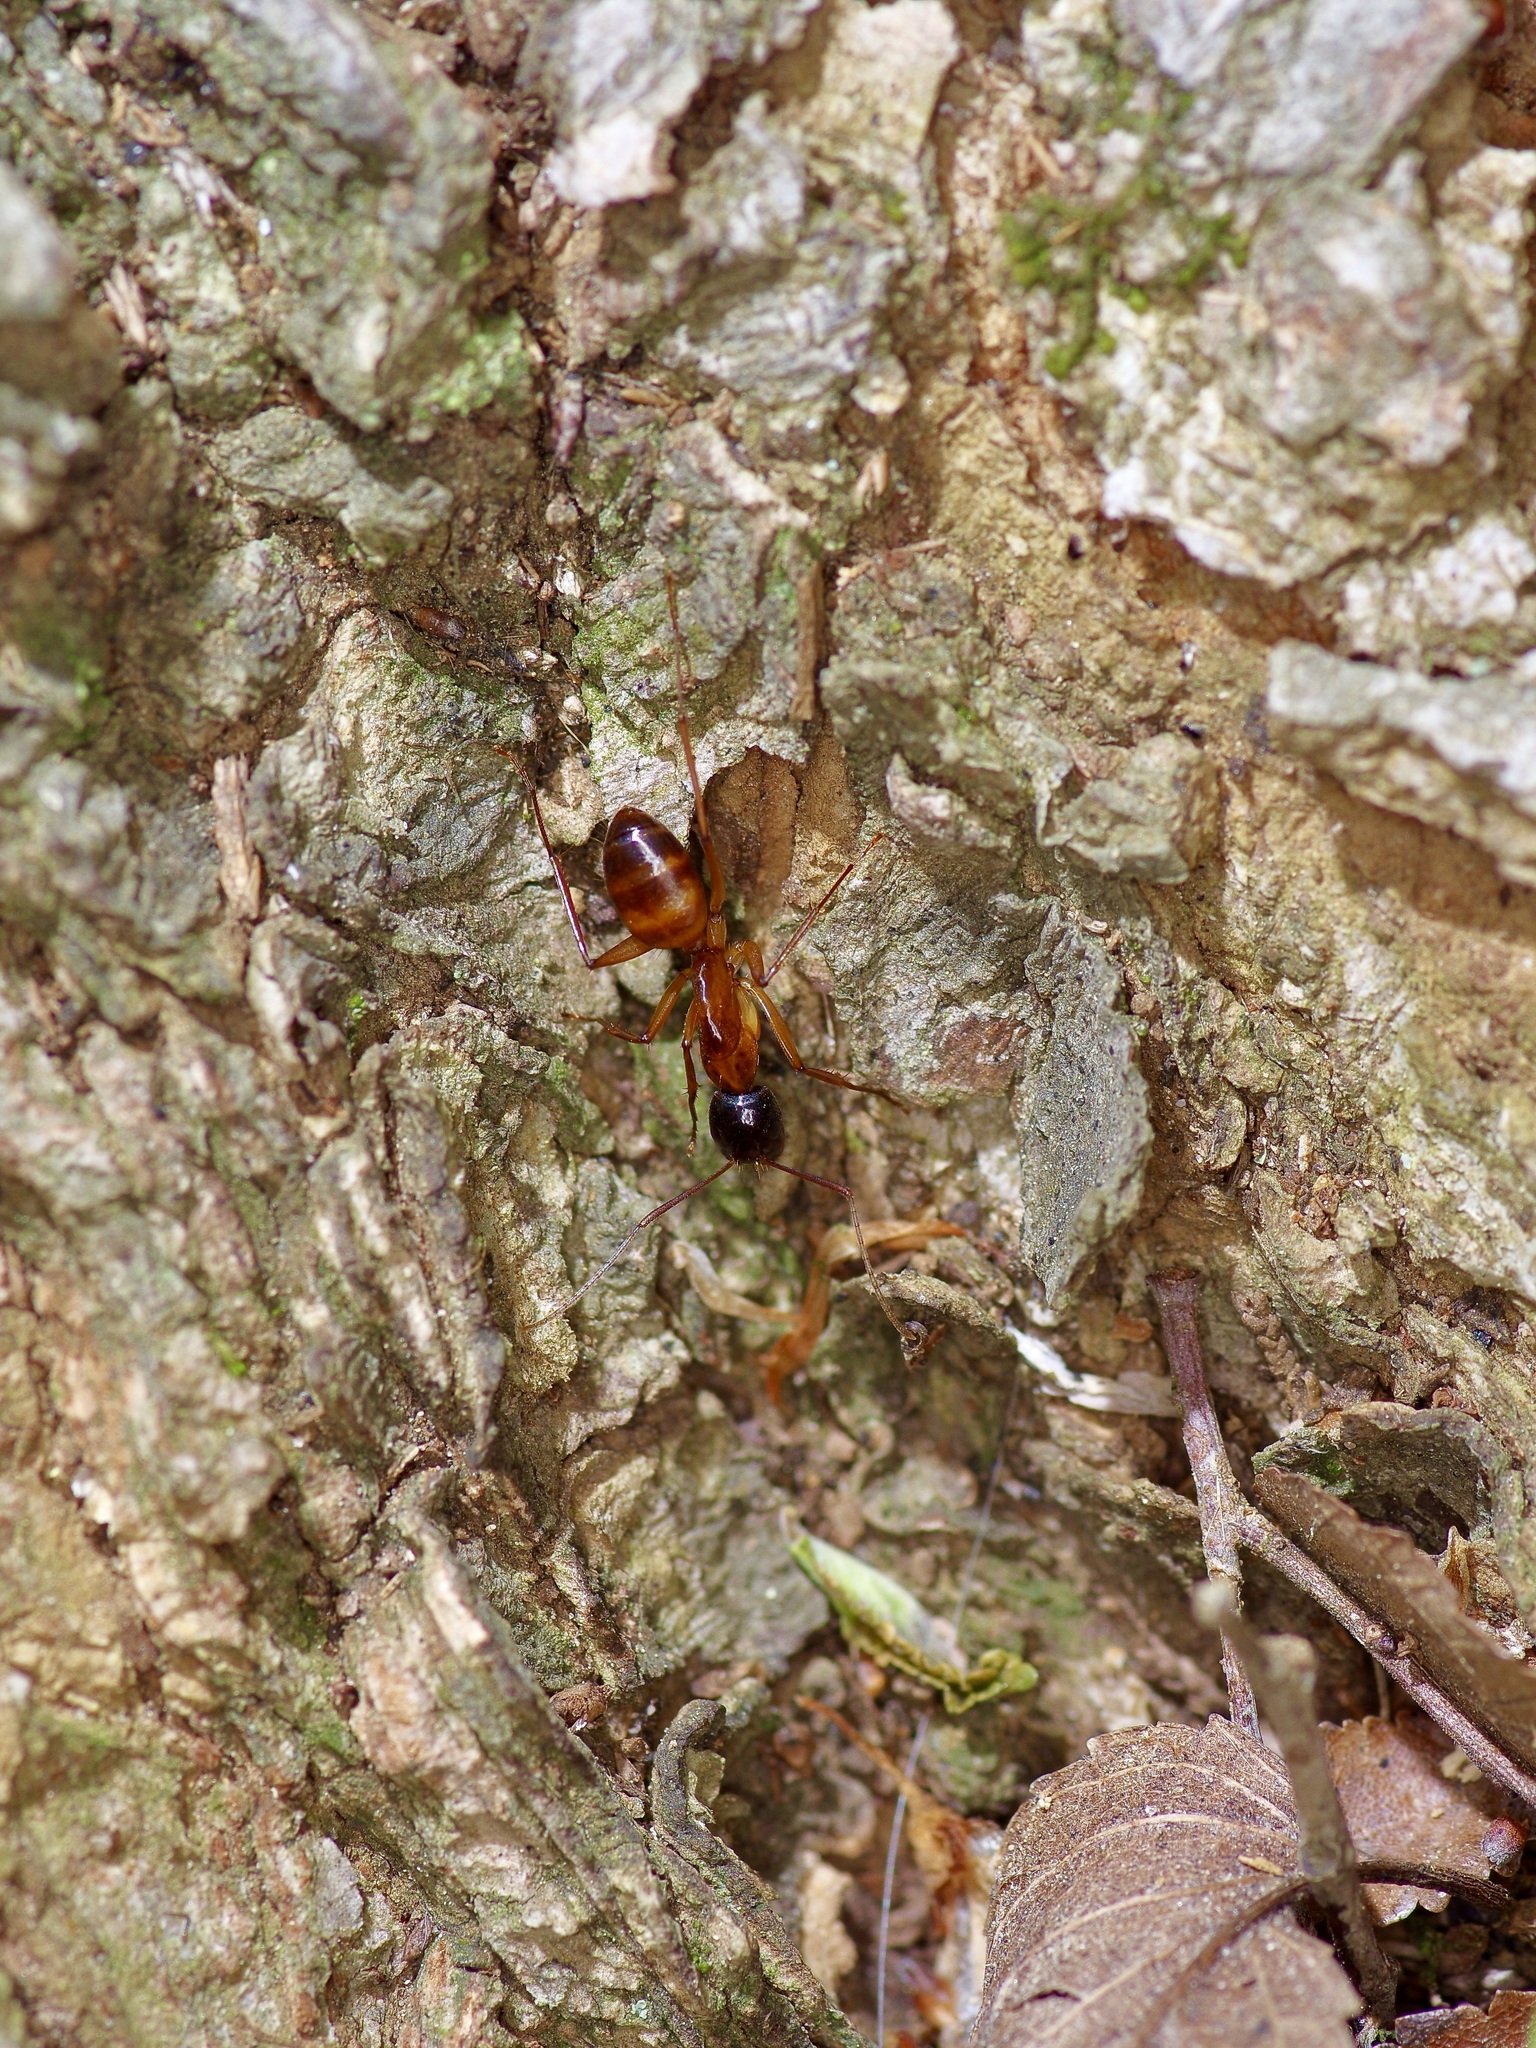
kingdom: Animalia
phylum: Arthropoda
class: Insecta
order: Hymenoptera
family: Formicidae
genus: Camponotus
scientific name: Camponotus americanus
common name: American carpenter ant
